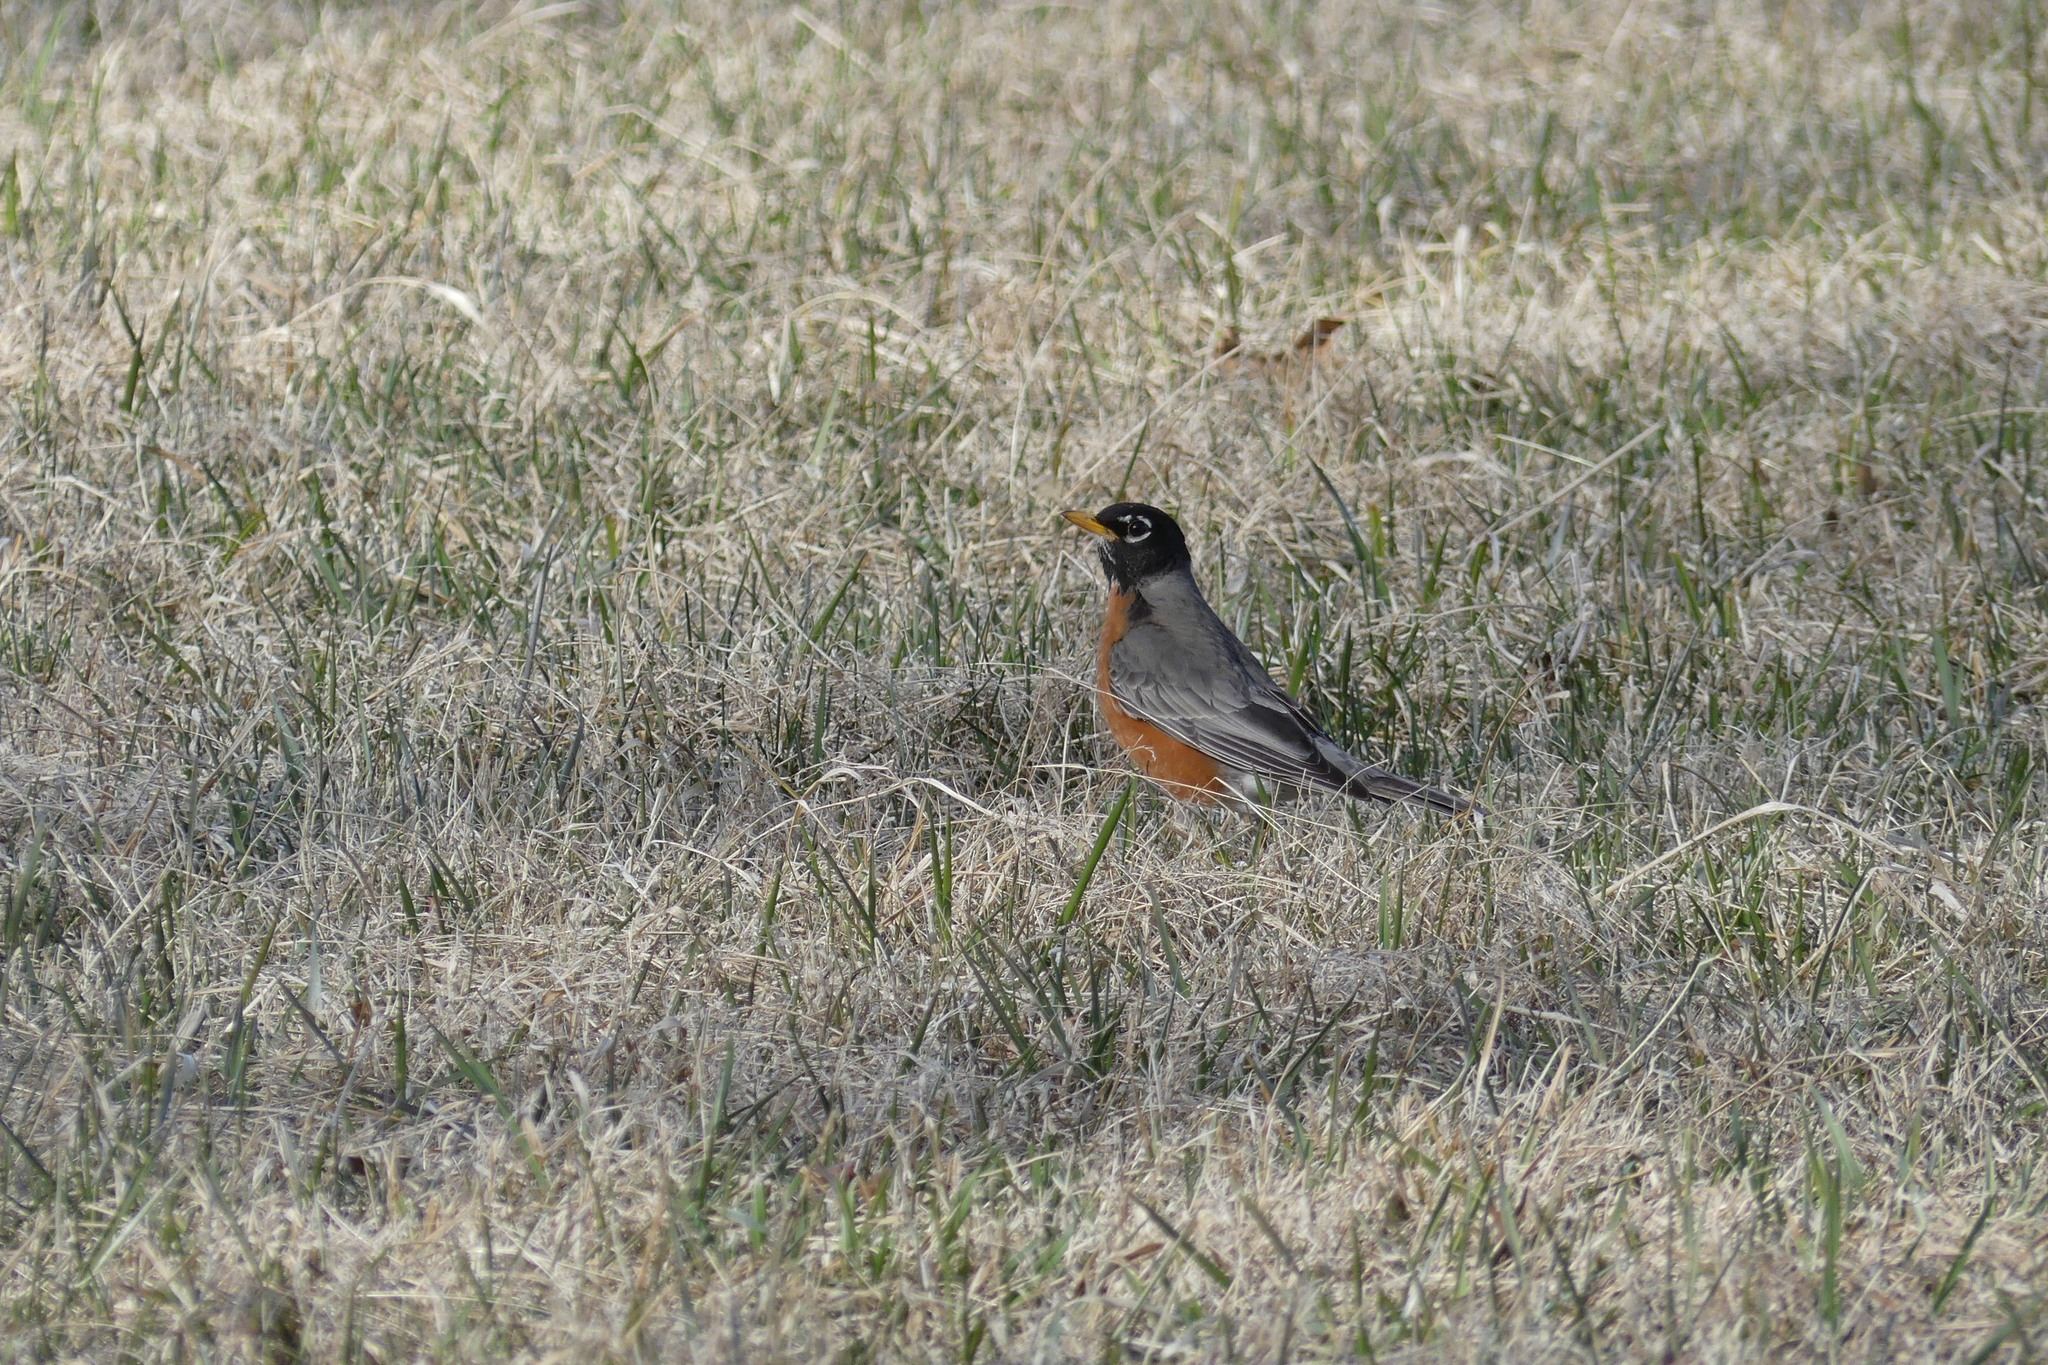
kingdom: Animalia
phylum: Chordata
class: Aves
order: Passeriformes
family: Turdidae
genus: Turdus
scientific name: Turdus migratorius
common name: American robin
